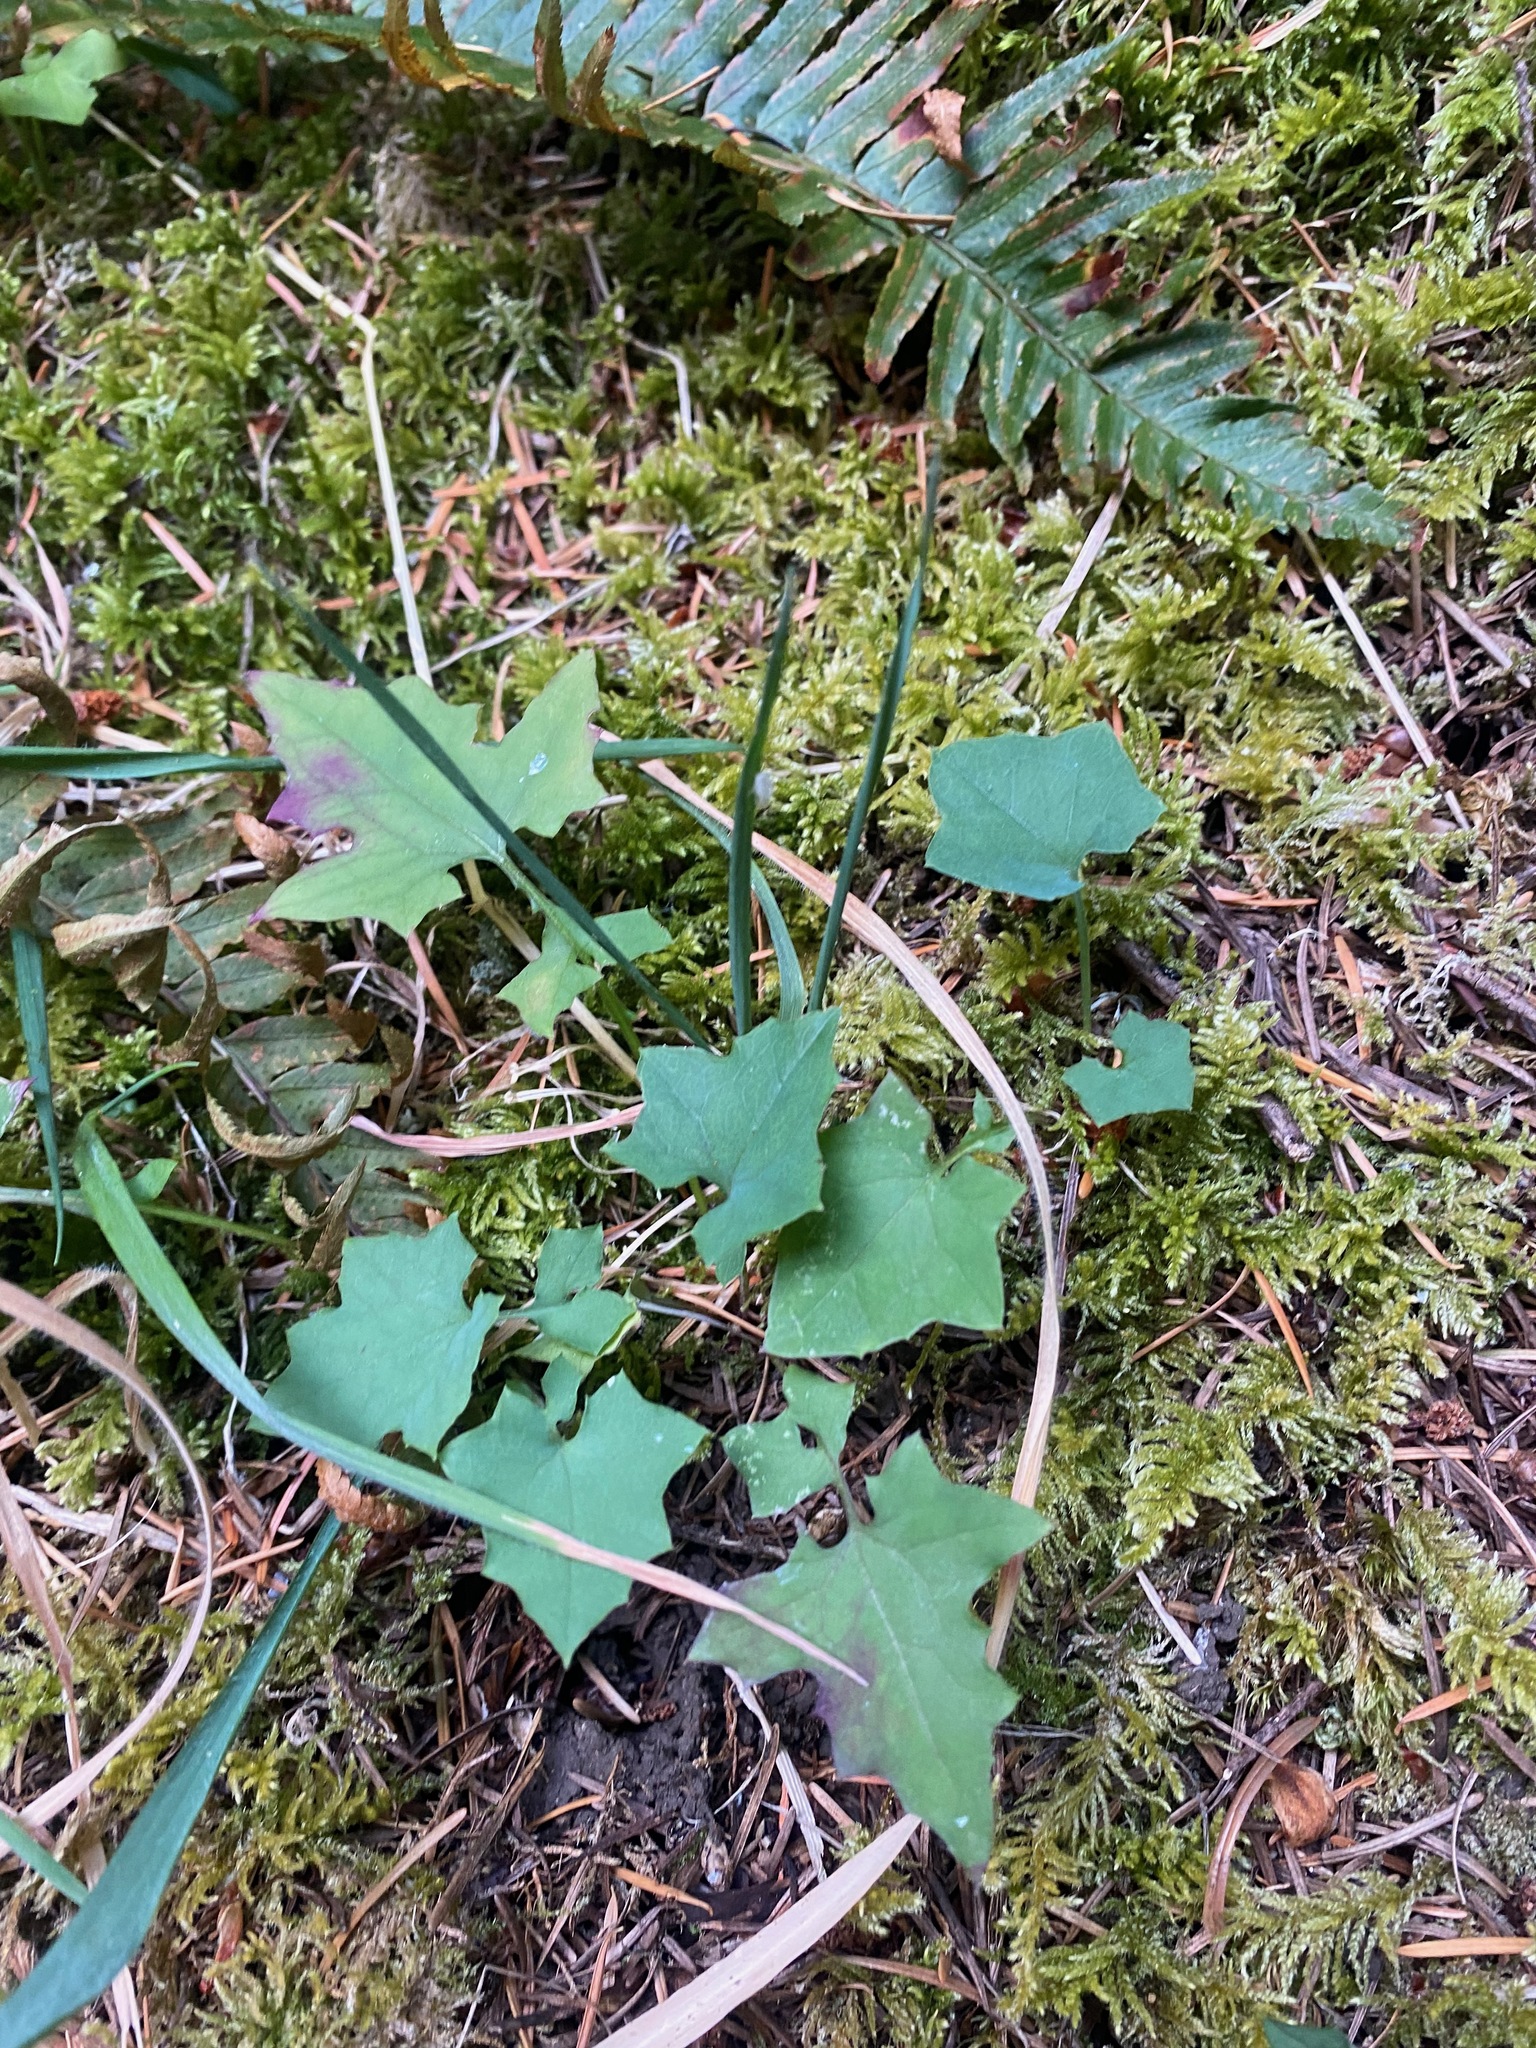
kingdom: Plantae
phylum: Tracheophyta
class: Magnoliopsida
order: Asterales
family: Asteraceae
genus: Mycelis
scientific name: Mycelis muralis
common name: Wall lettuce
